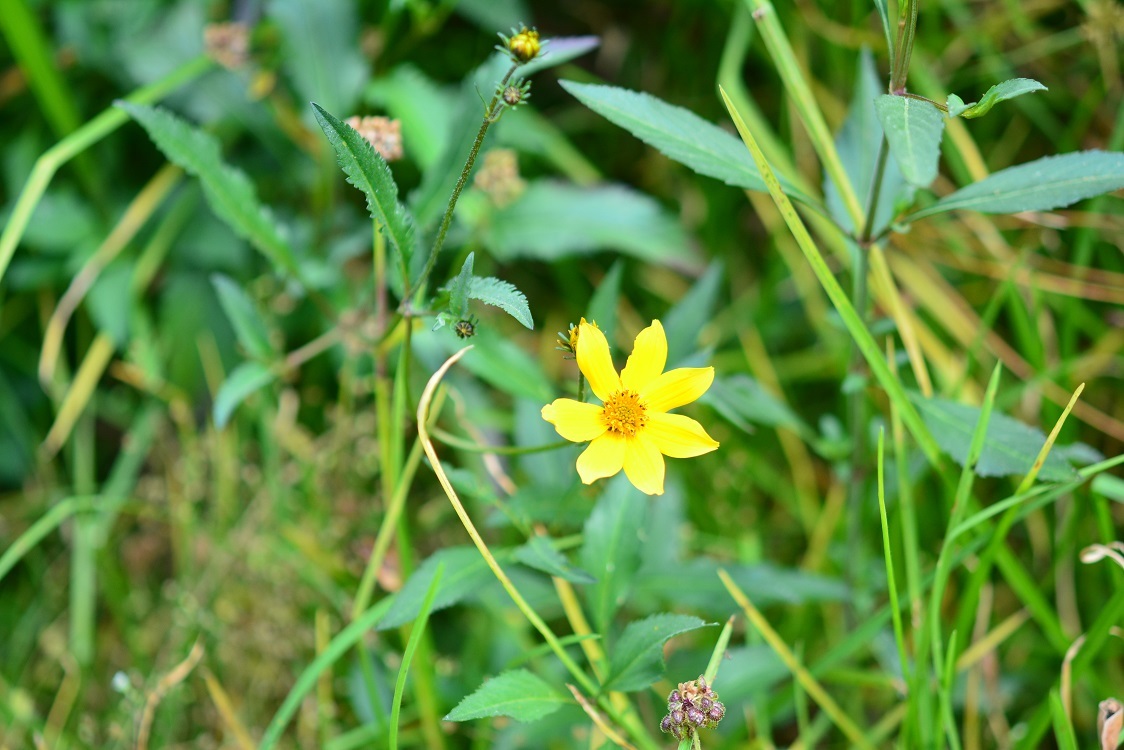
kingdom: Plantae
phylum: Tracheophyta
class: Magnoliopsida
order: Asterales
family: Asteraceae
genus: Bidens
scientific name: Bidens aurea
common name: Arizona beggar-ticks
